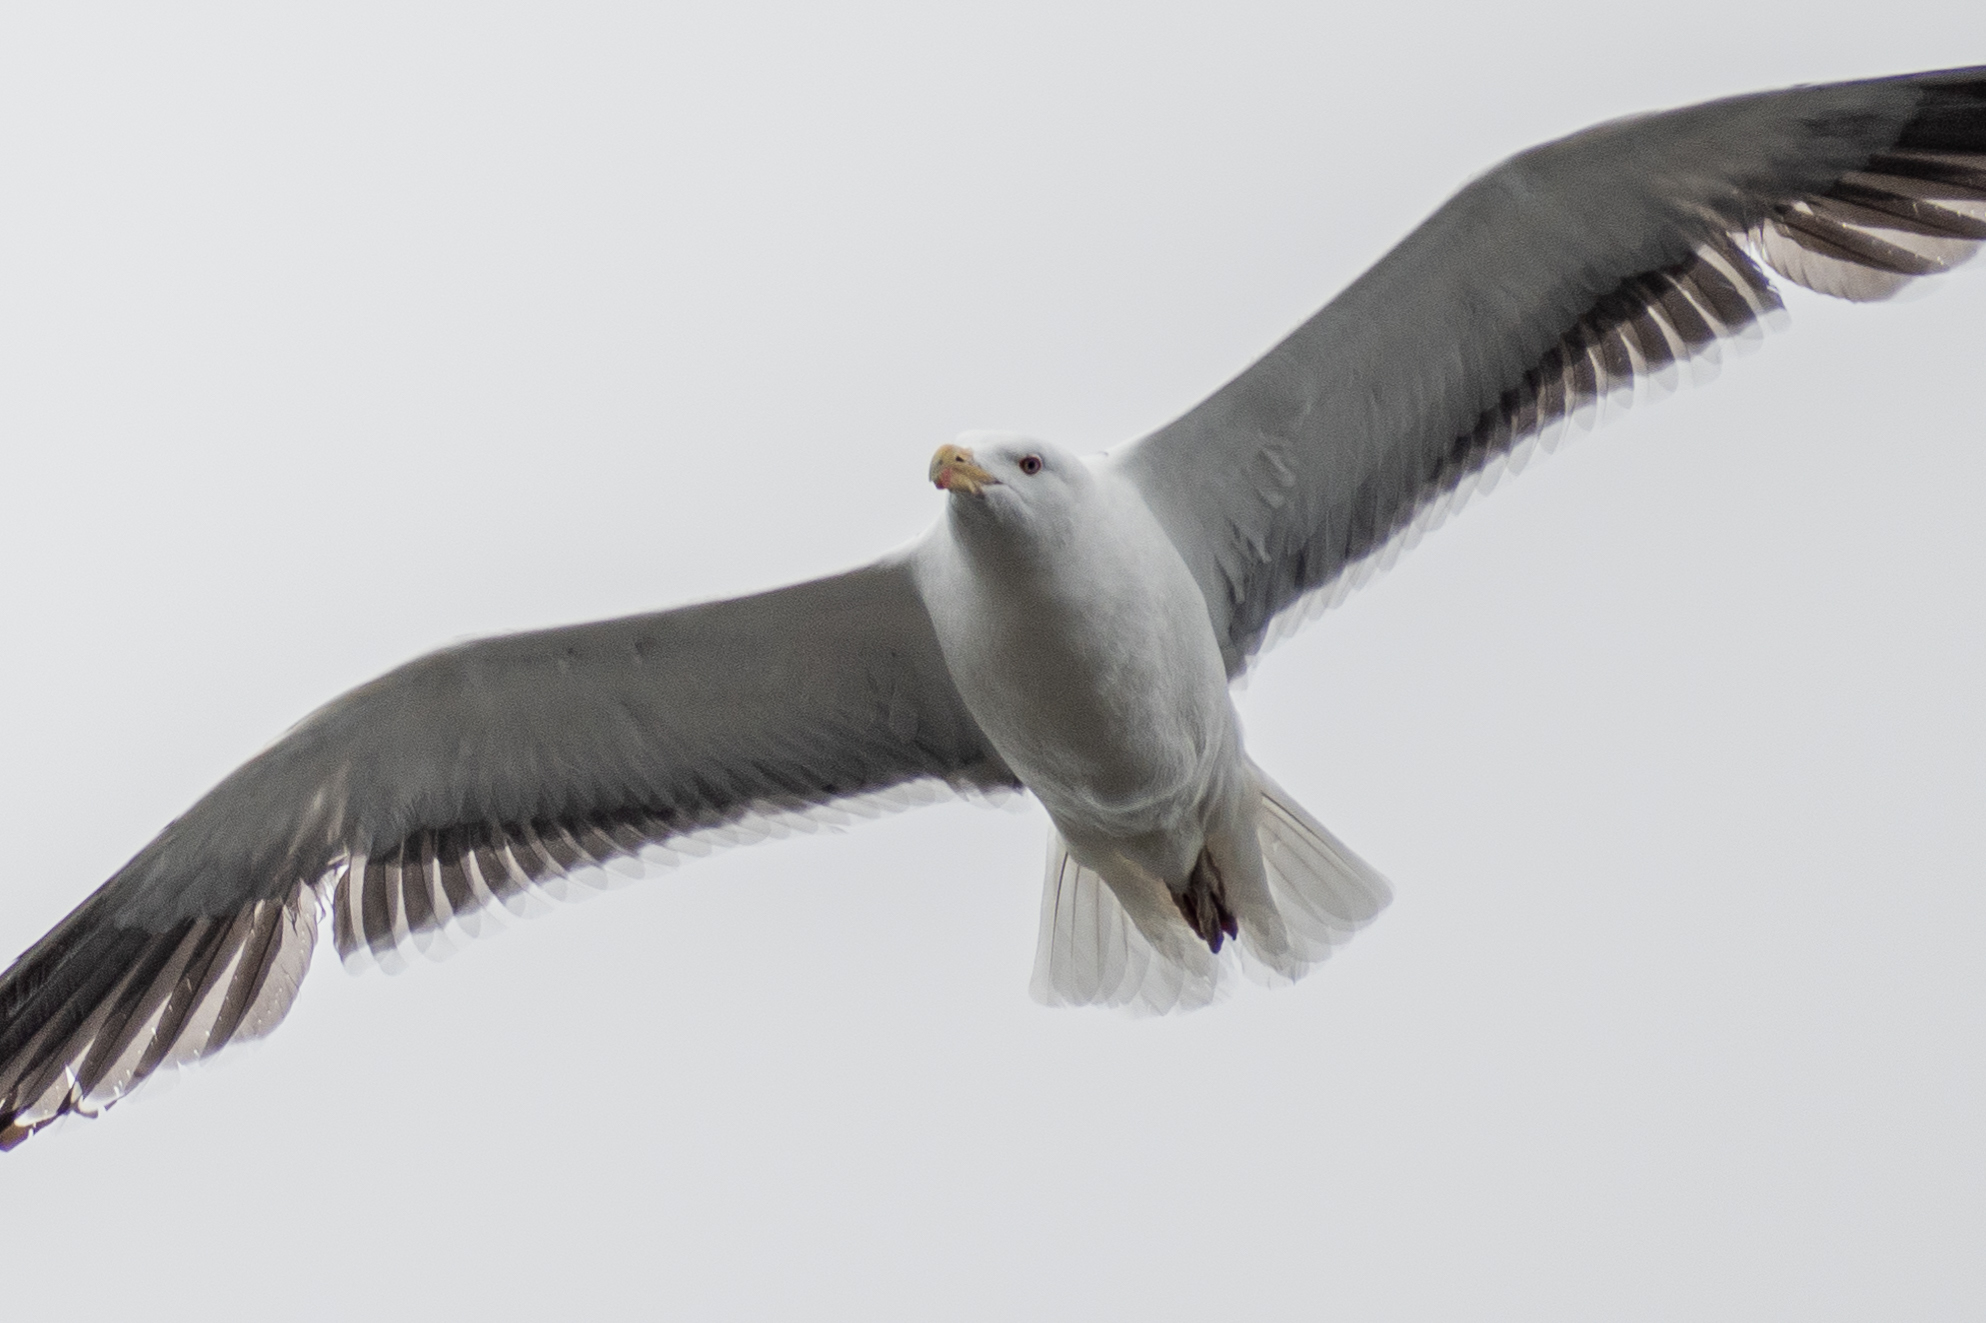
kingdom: Animalia
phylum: Chordata
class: Aves
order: Charadriiformes
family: Laridae
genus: Larus
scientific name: Larus marinus
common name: Great black-backed gull
